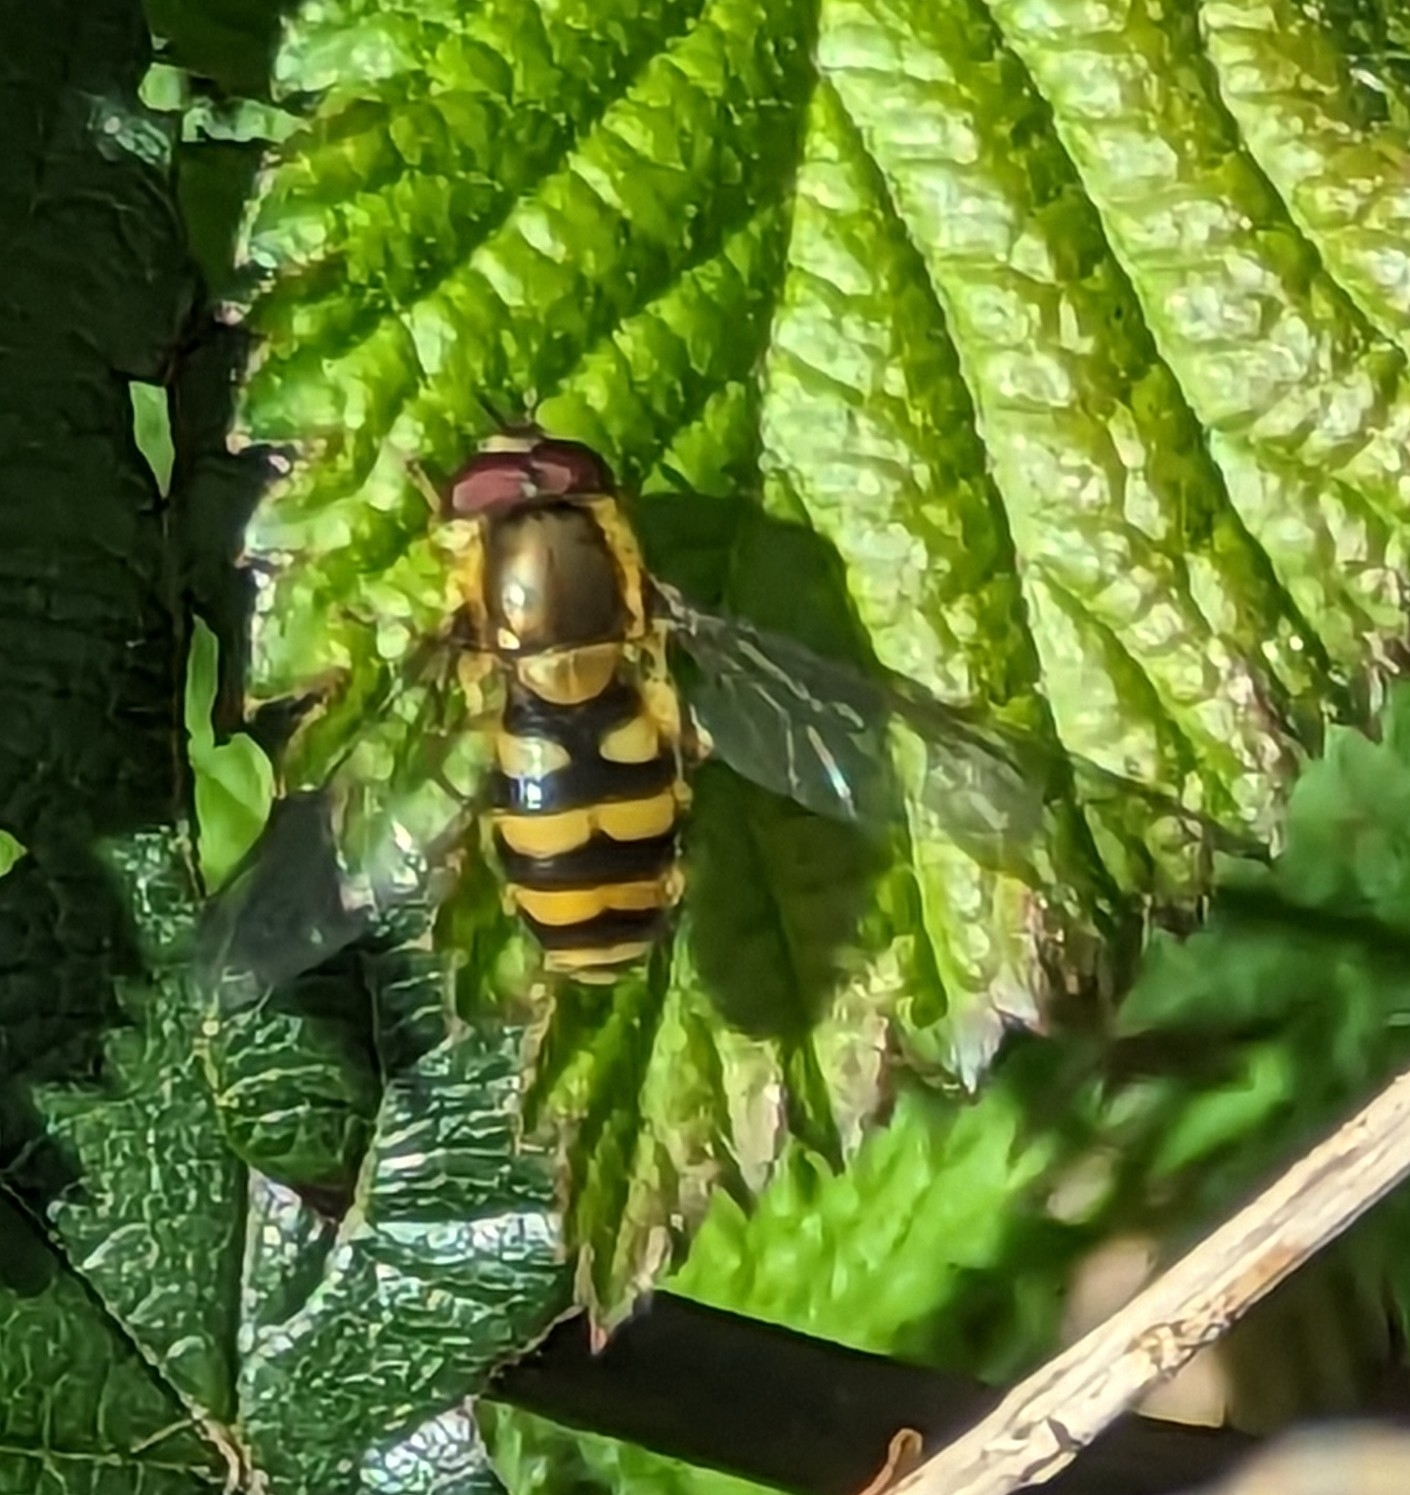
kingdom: Animalia
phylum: Arthropoda
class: Insecta
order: Diptera
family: Syrphidae
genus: Syrphus
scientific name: Syrphus
